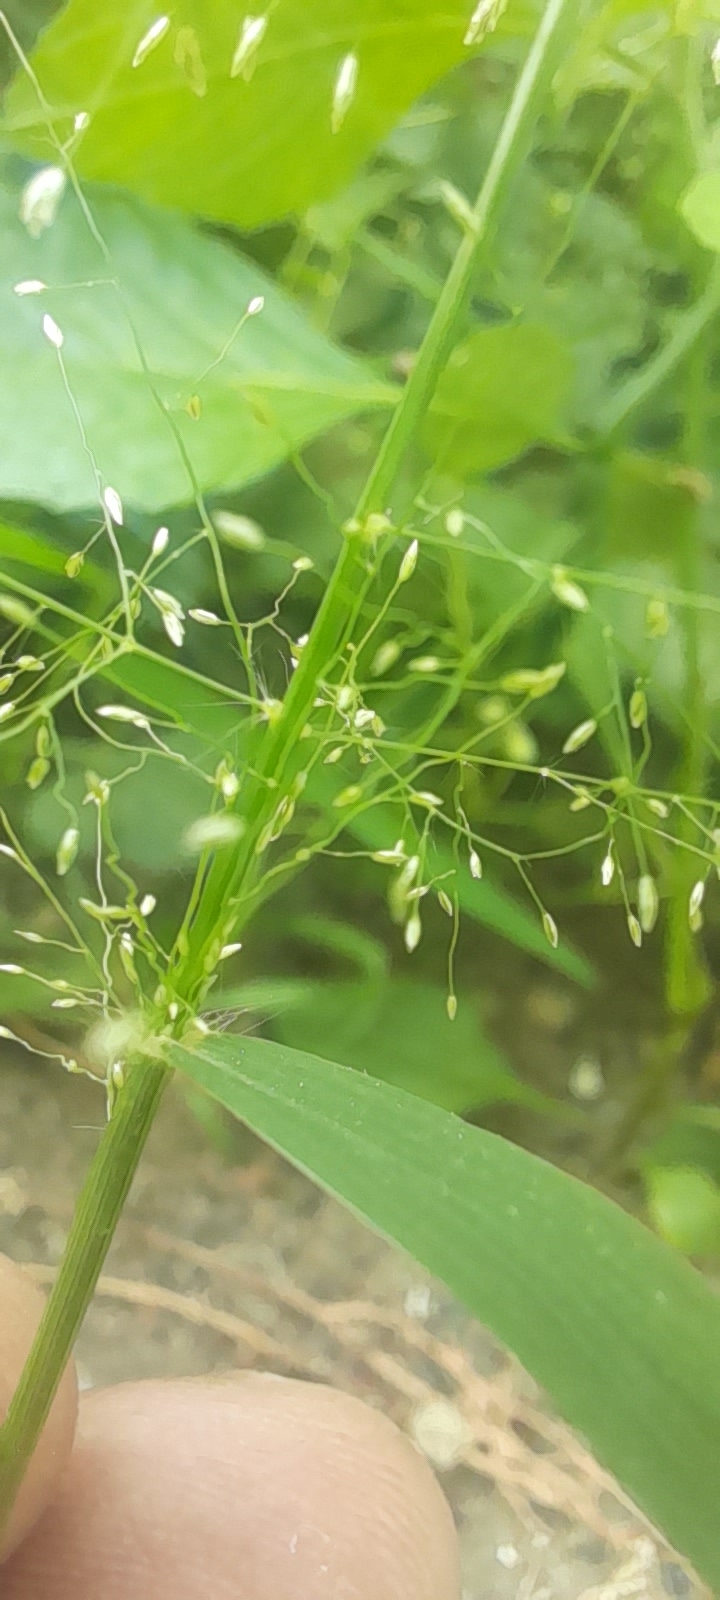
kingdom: Plantae
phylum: Tracheophyta
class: Liliopsida
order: Poales
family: Poaceae
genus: Eragrostis
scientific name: Eragrostis tenella
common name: Japanese lovegrass
